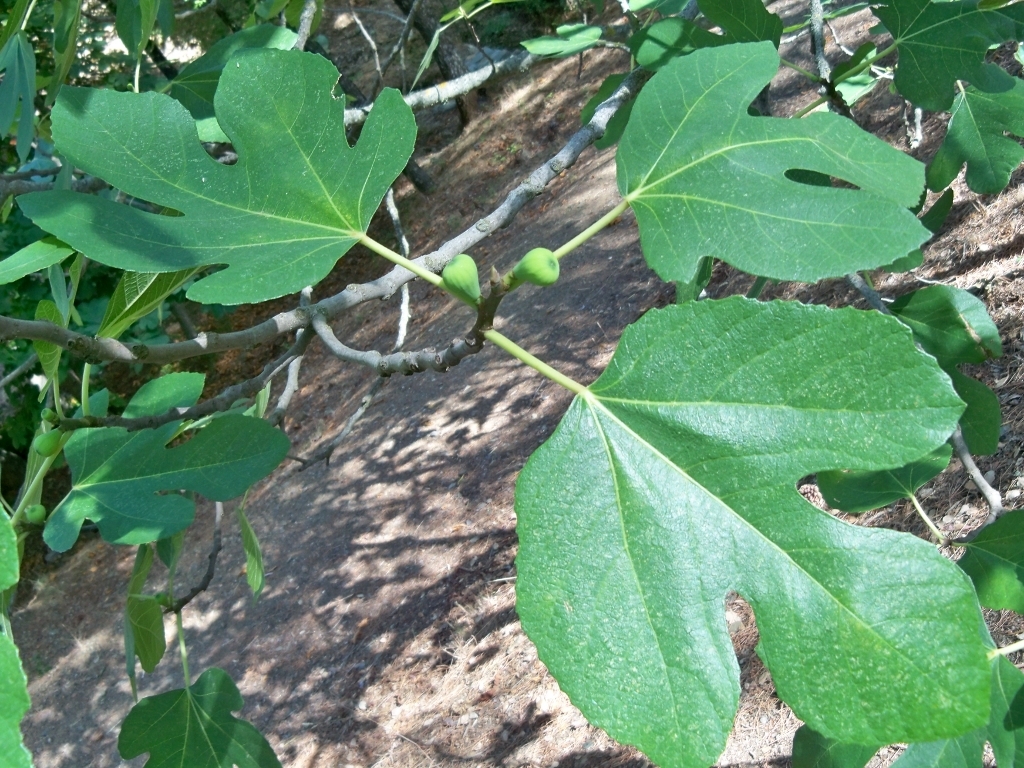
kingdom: Plantae
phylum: Tracheophyta
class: Magnoliopsida
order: Rosales
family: Moraceae
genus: Ficus
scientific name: Ficus carica
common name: Fig
